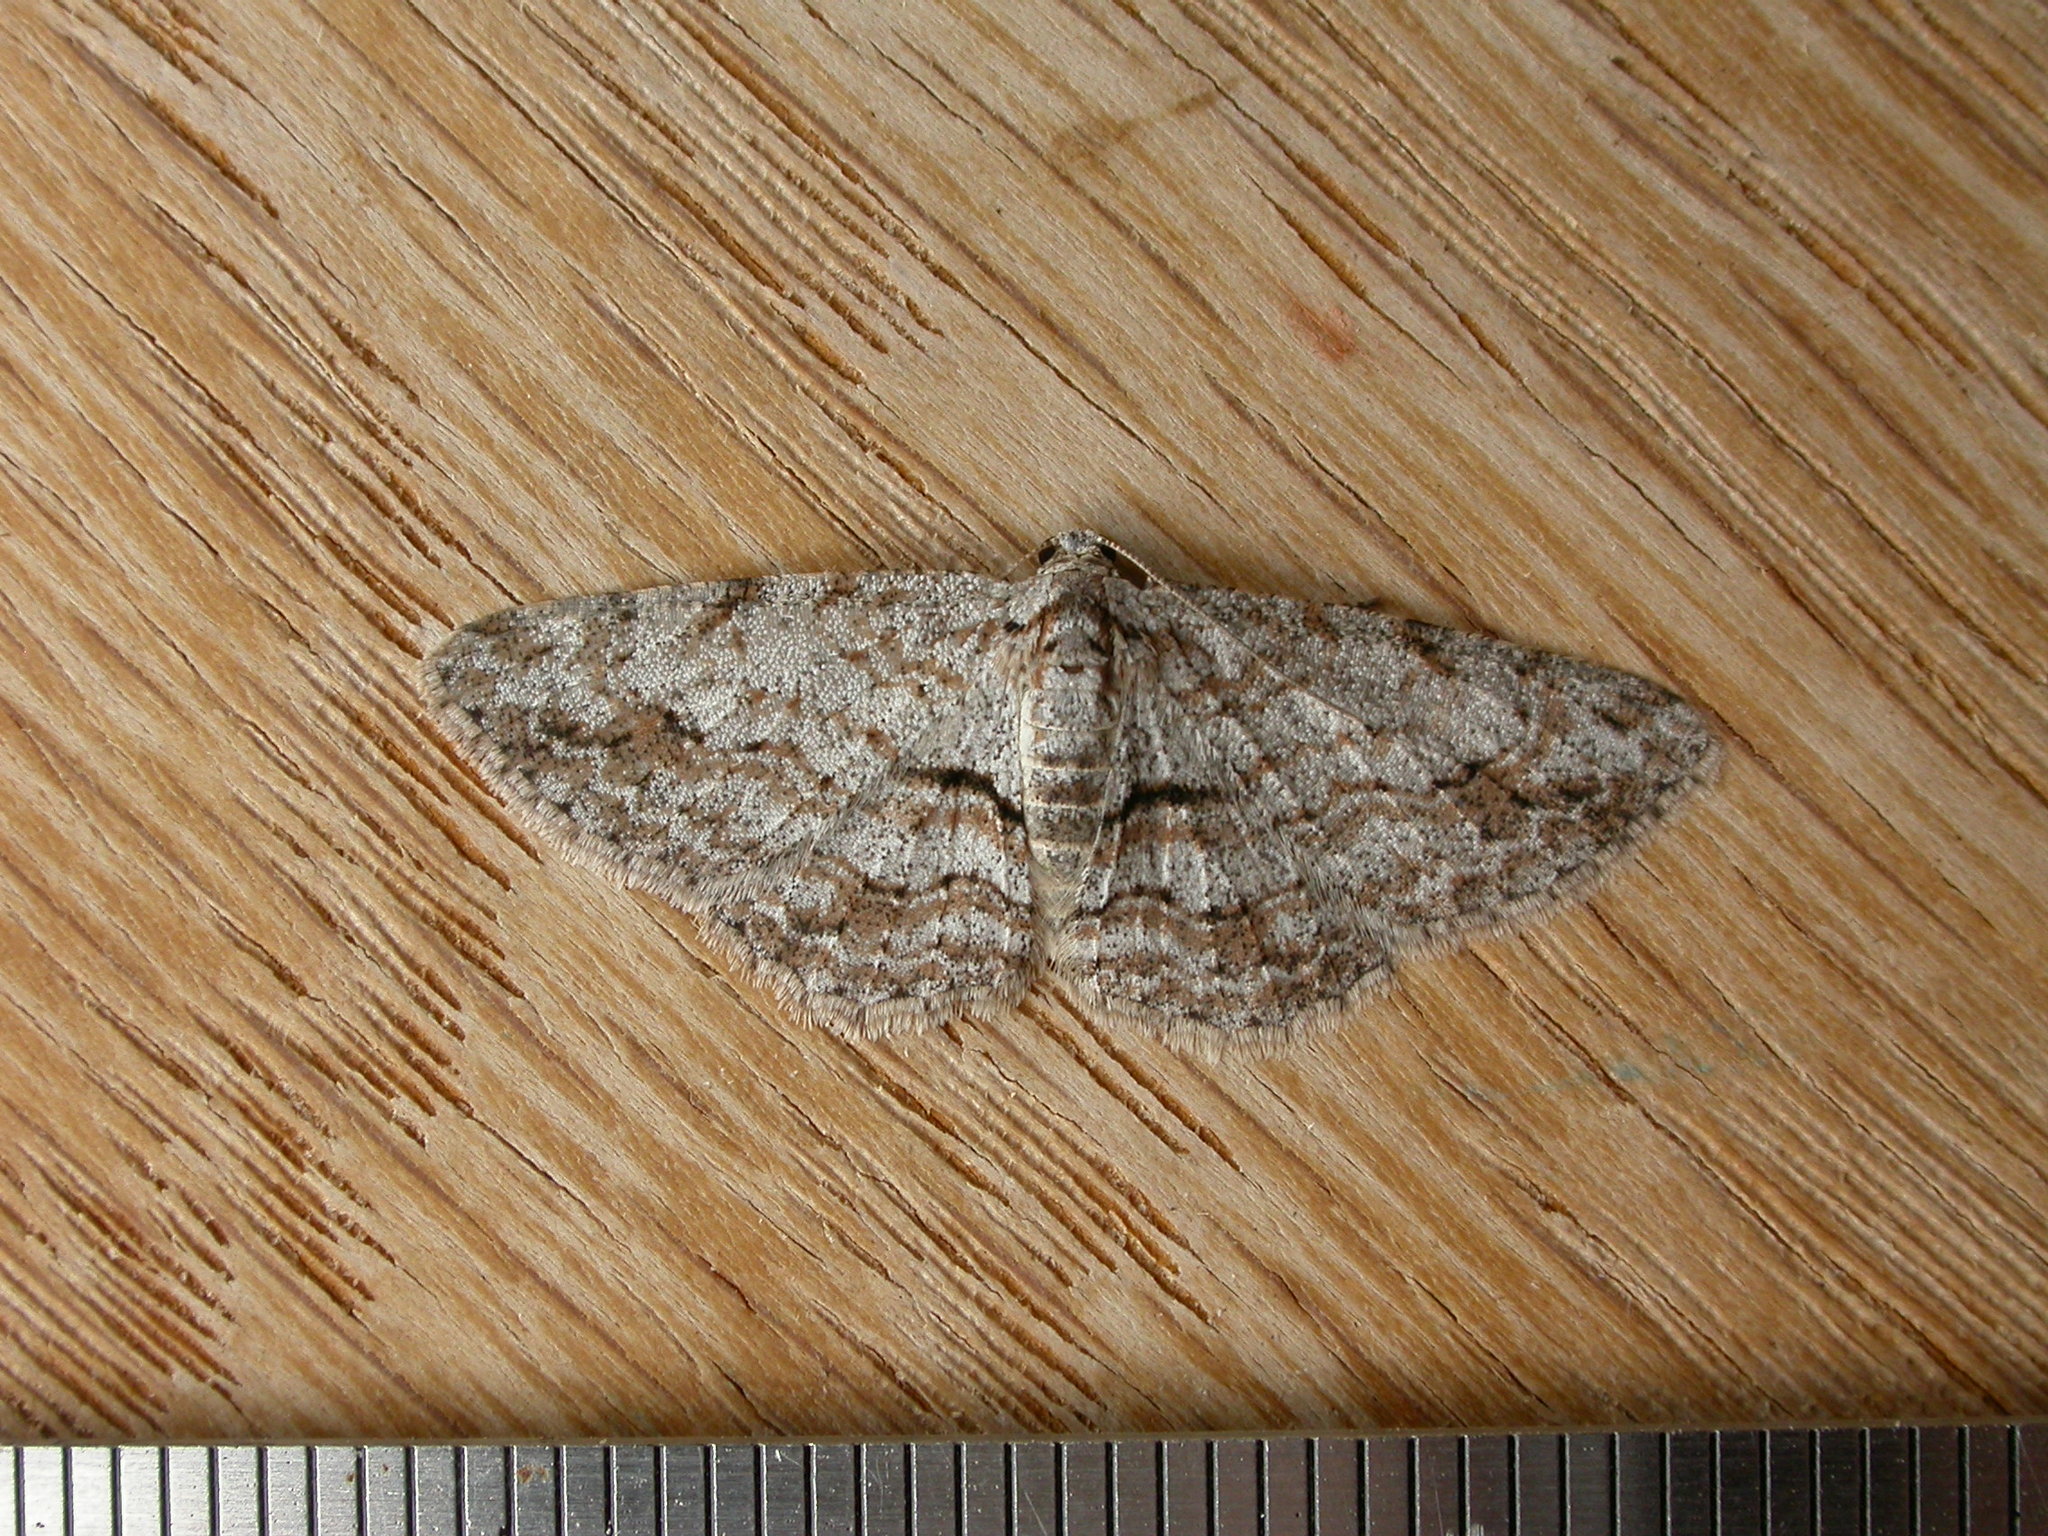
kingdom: Animalia
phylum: Arthropoda
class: Insecta
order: Lepidoptera
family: Geometridae
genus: Didymoctenia
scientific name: Didymoctenia exsuperata
